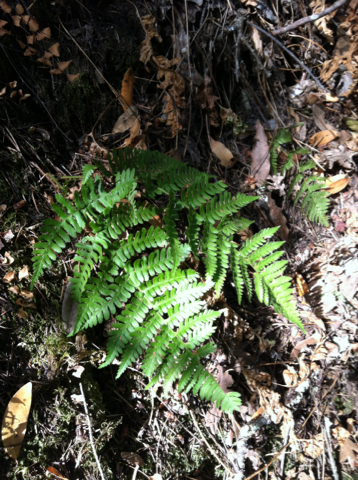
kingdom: Plantae
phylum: Tracheophyta
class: Polypodiopsida
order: Polypodiales
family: Dryopteridaceae
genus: Dryopteris
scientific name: Dryopteris arguta
